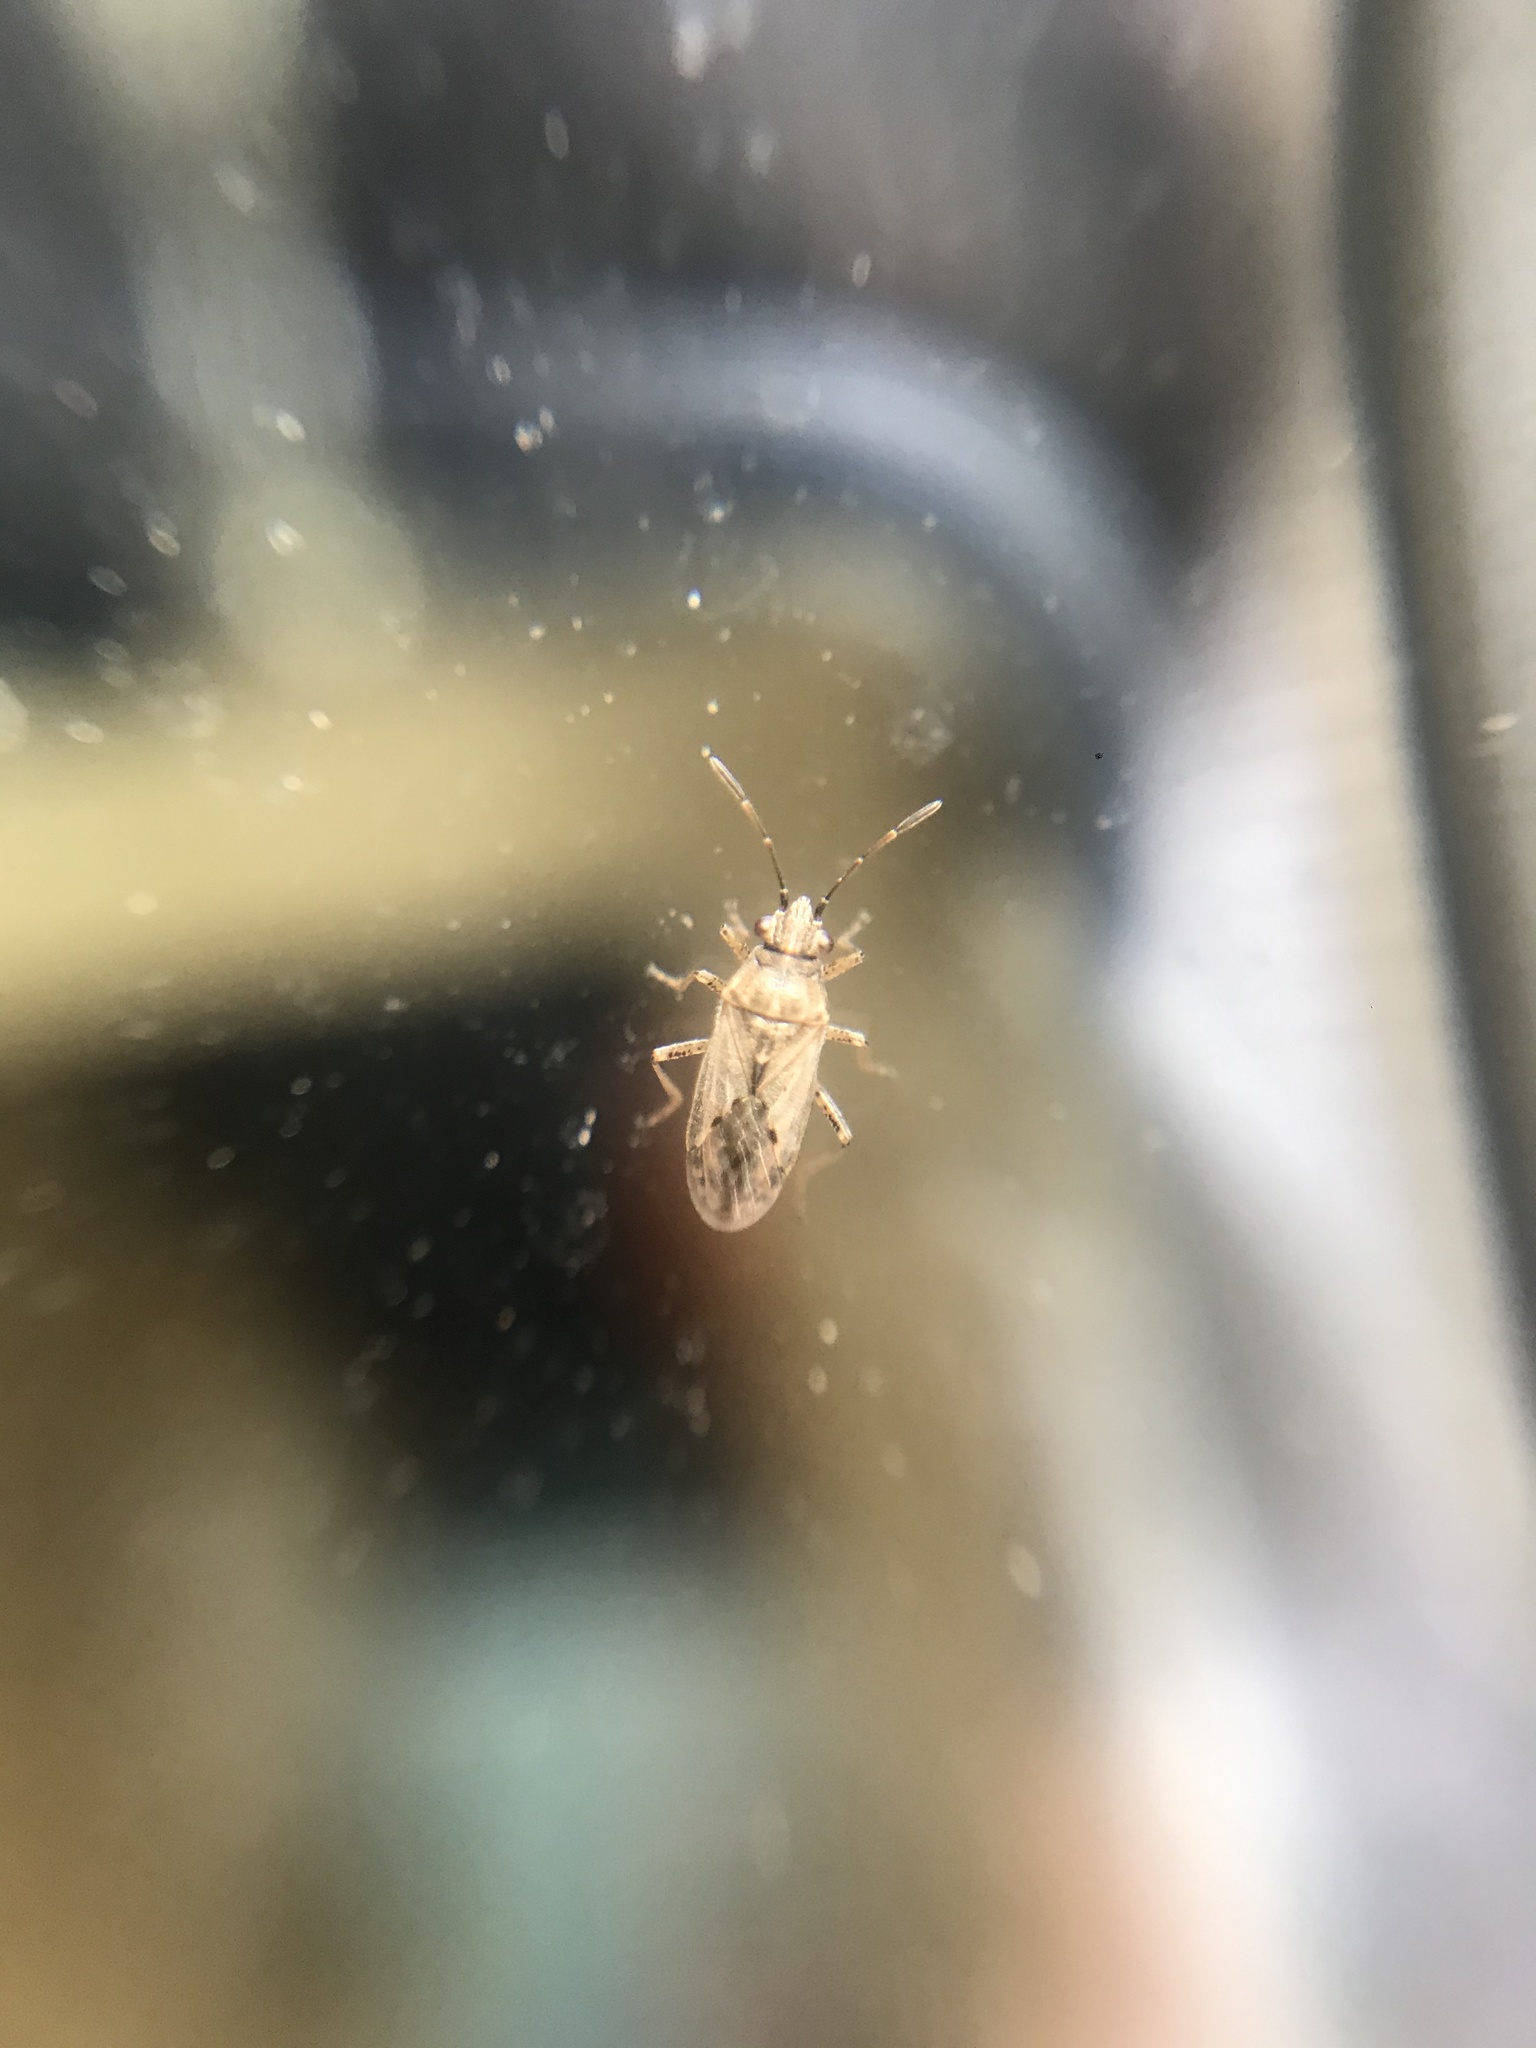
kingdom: Animalia
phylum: Arthropoda
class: Insecta
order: Hemiptera
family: Lygaeidae
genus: Nysius
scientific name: Nysius
